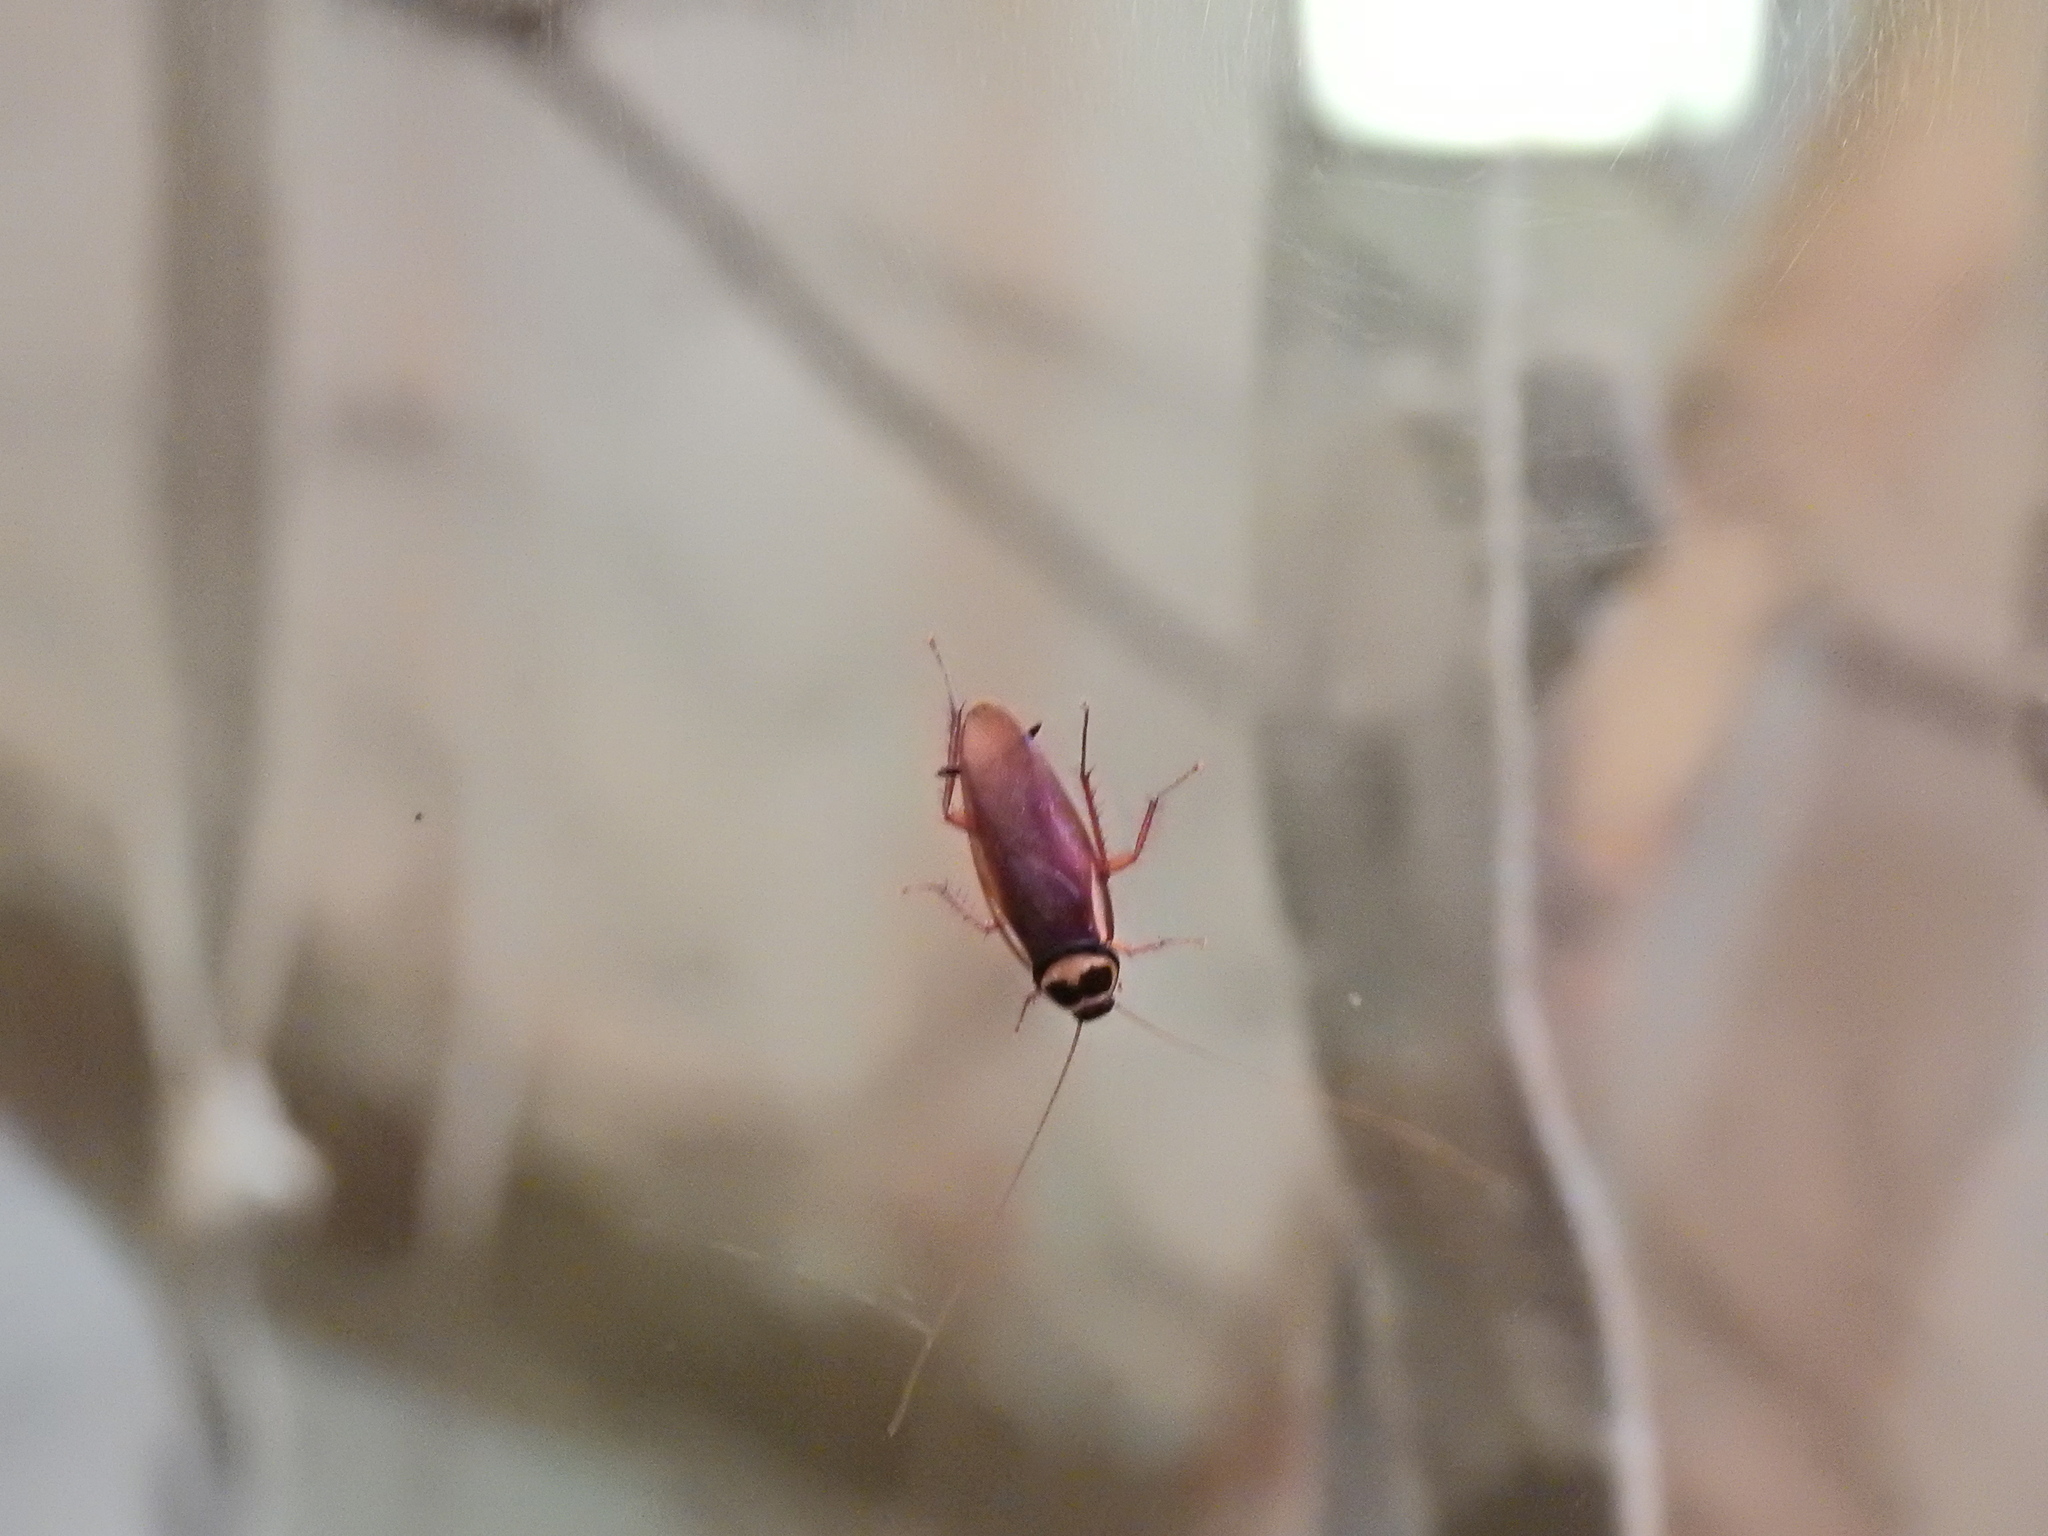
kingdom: Animalia
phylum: Arthropoda
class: Insecta
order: Blattodea
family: Blattidae
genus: Periplaneta
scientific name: Periplaneta australasiae
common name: Australian cockroach
